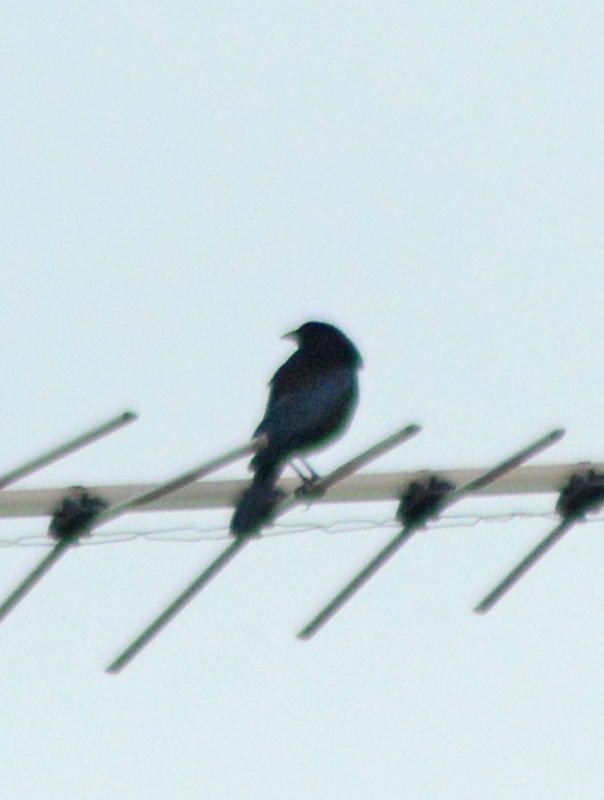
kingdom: Animalia
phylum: Chordata
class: Aves
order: Passeriformes
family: Icteridae
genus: Molothrus
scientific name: Molothrus aeneus
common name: Bronzed cowbird
